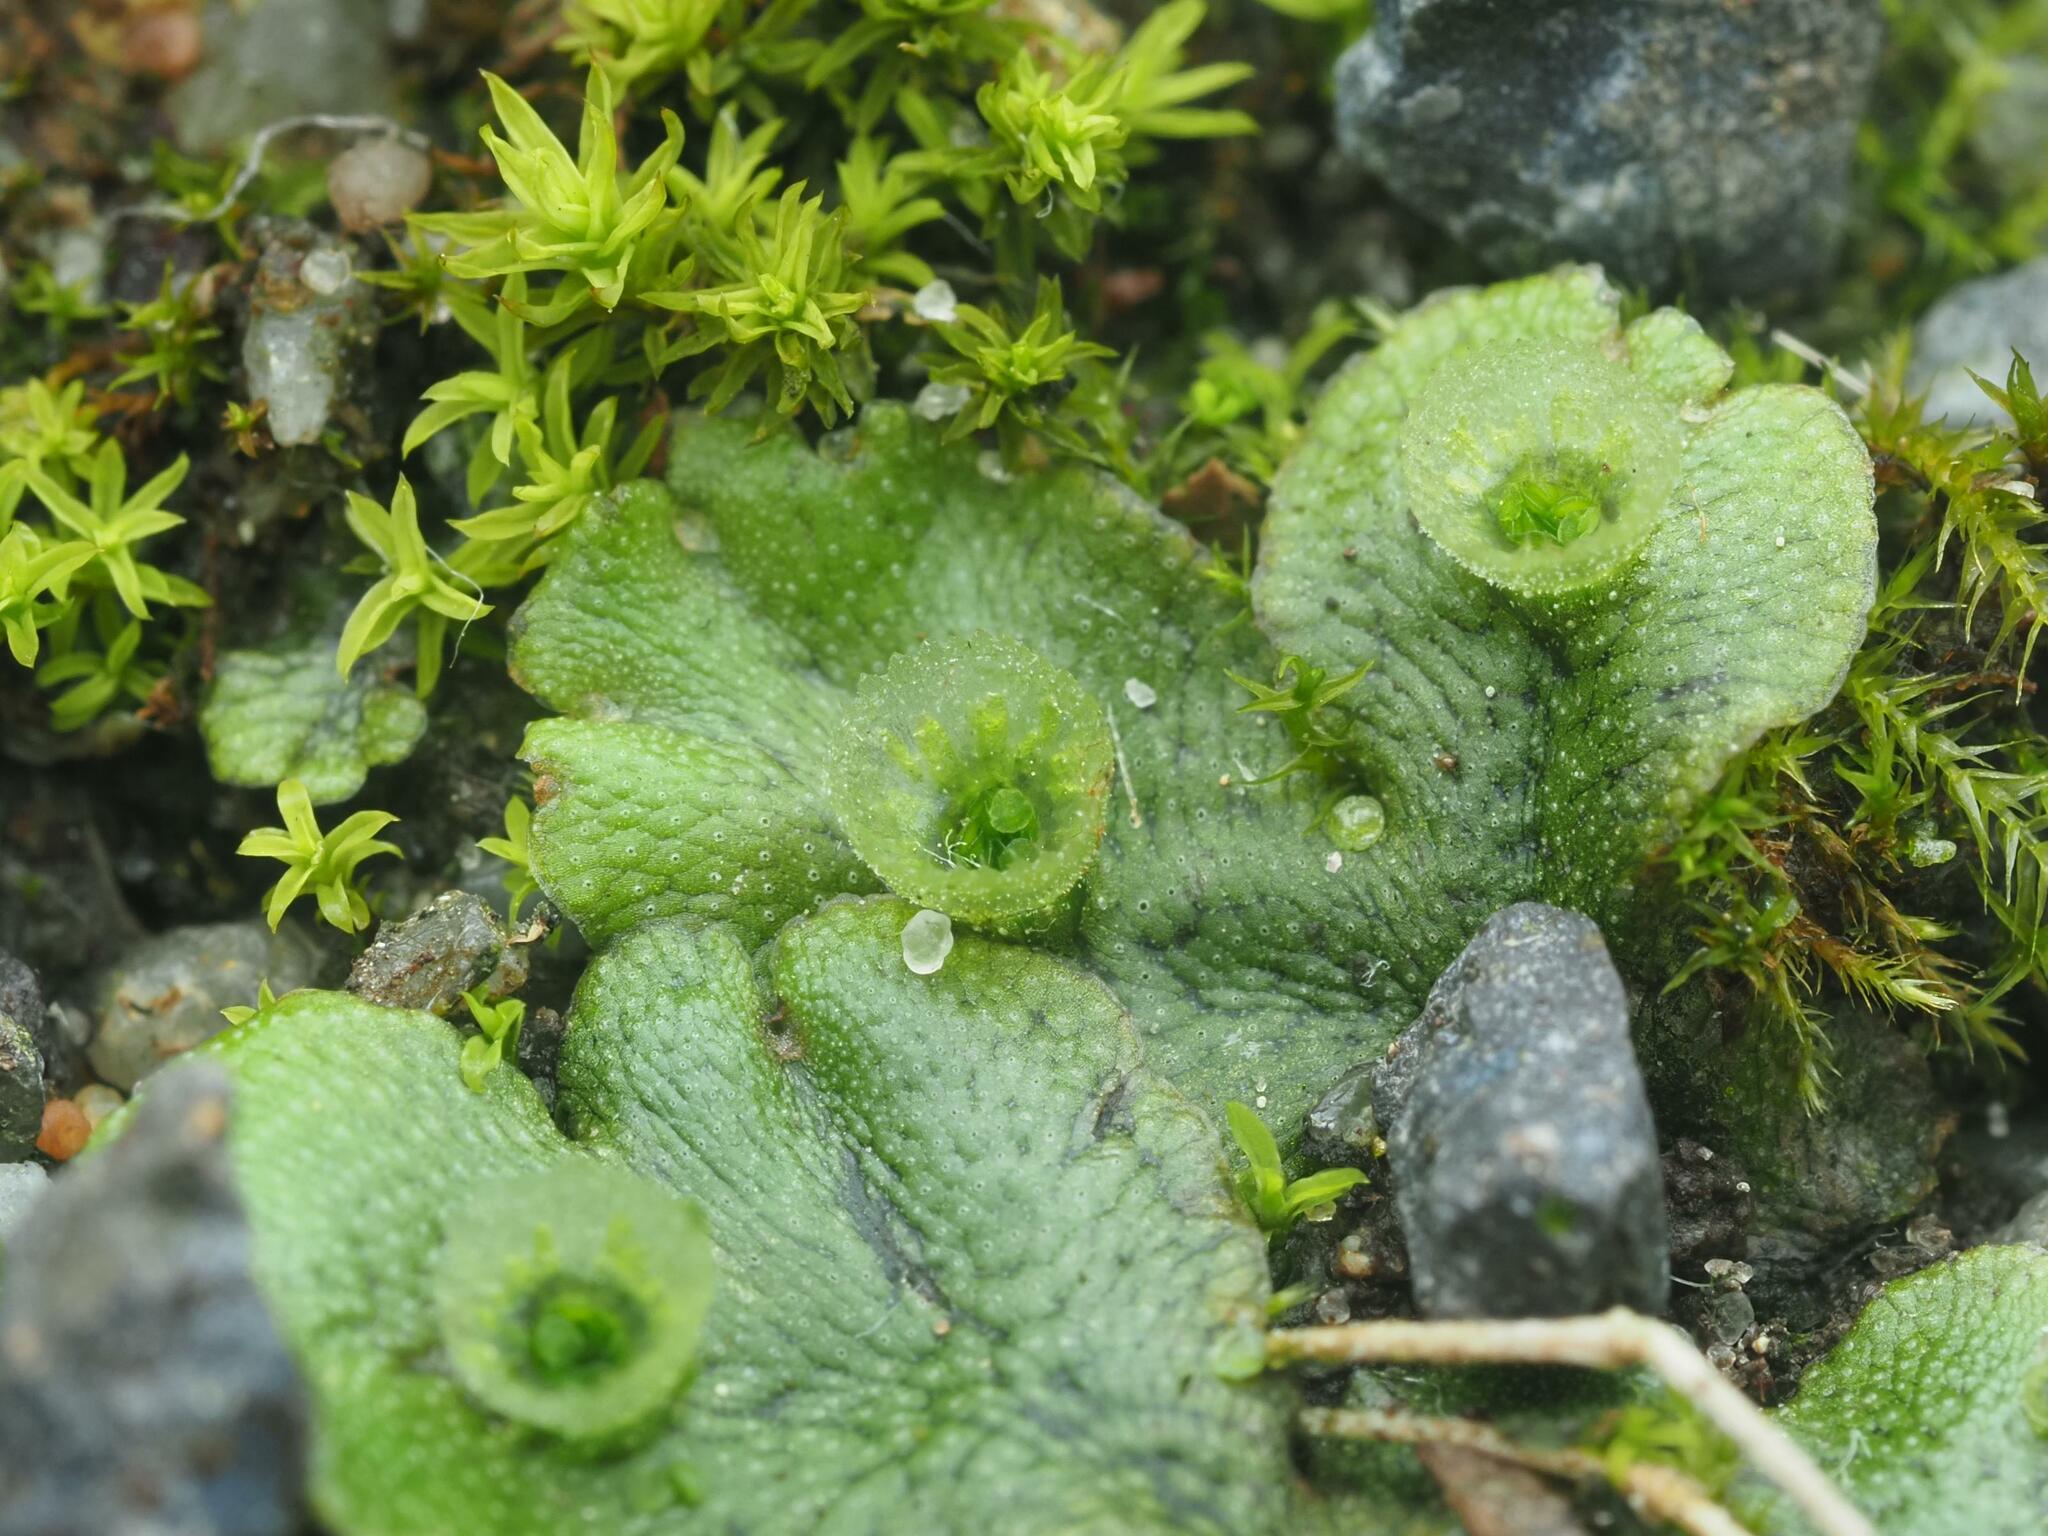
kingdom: Plantae
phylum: Marchantiophyta
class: Marchantiopsida
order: Marchantiales
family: Marchantiaceae
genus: Marchantia
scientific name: Marchantia polymorpha
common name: Common liverwort
